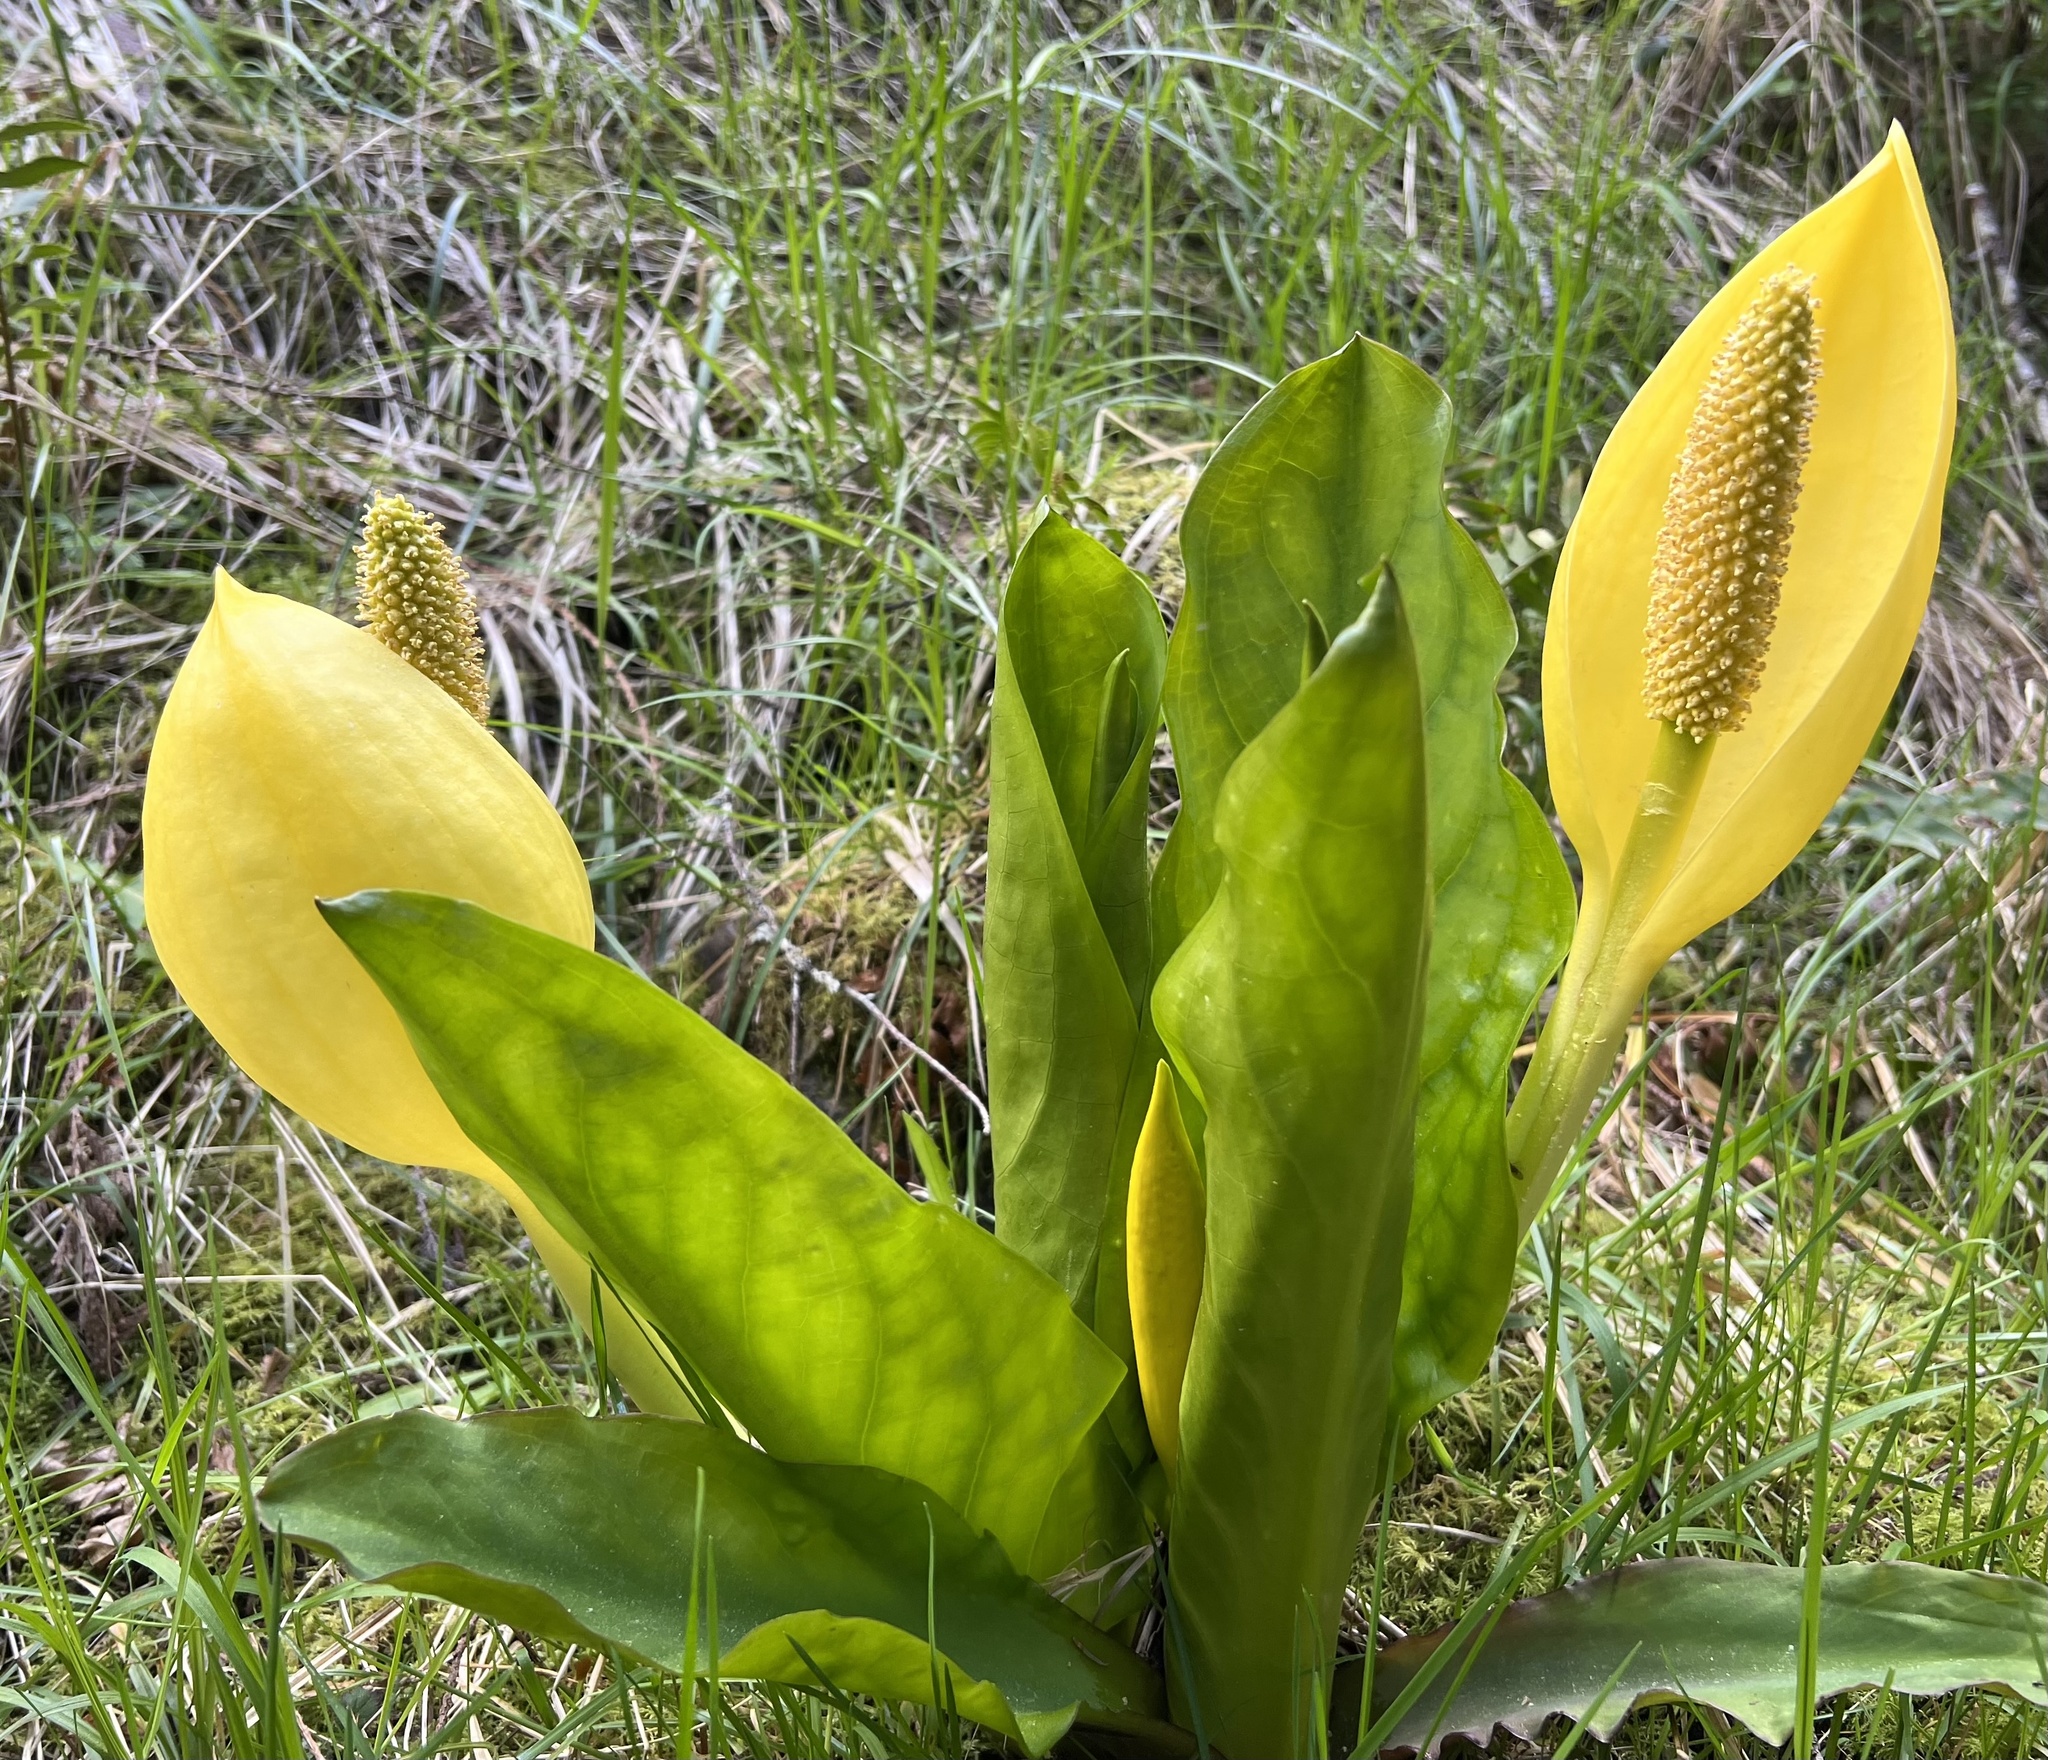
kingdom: Plantae
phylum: Tracheophyta
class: Liliopsida
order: Alismatales
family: Araceae
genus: Lysichiton
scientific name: Lysichiton americanus
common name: American skunk cabbage
